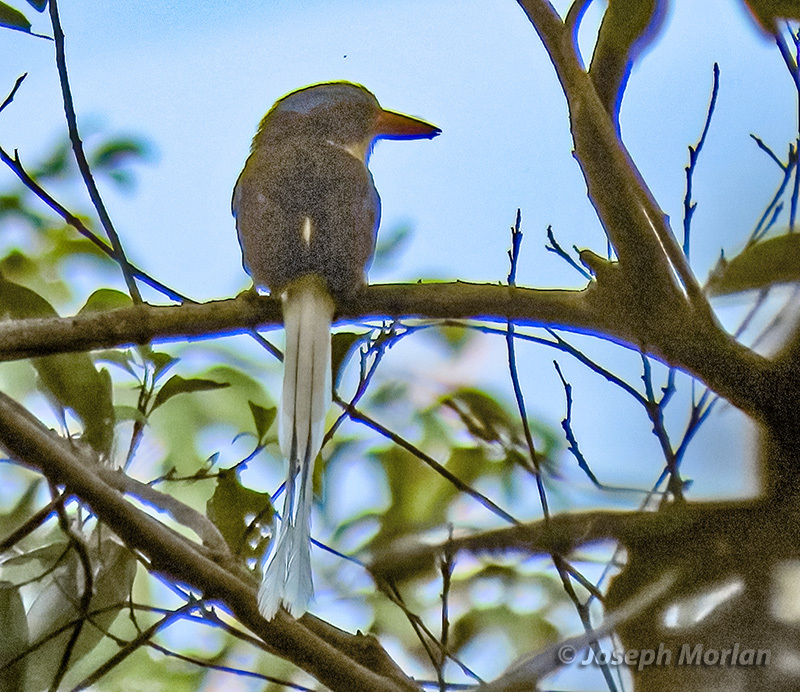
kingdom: Animalia
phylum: Chordata
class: Aves
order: Coraciiformes
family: Alcedinidae
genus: Tanysiptera
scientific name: Tanysiptera ellioti
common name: Kofiau paradise kingfisher
